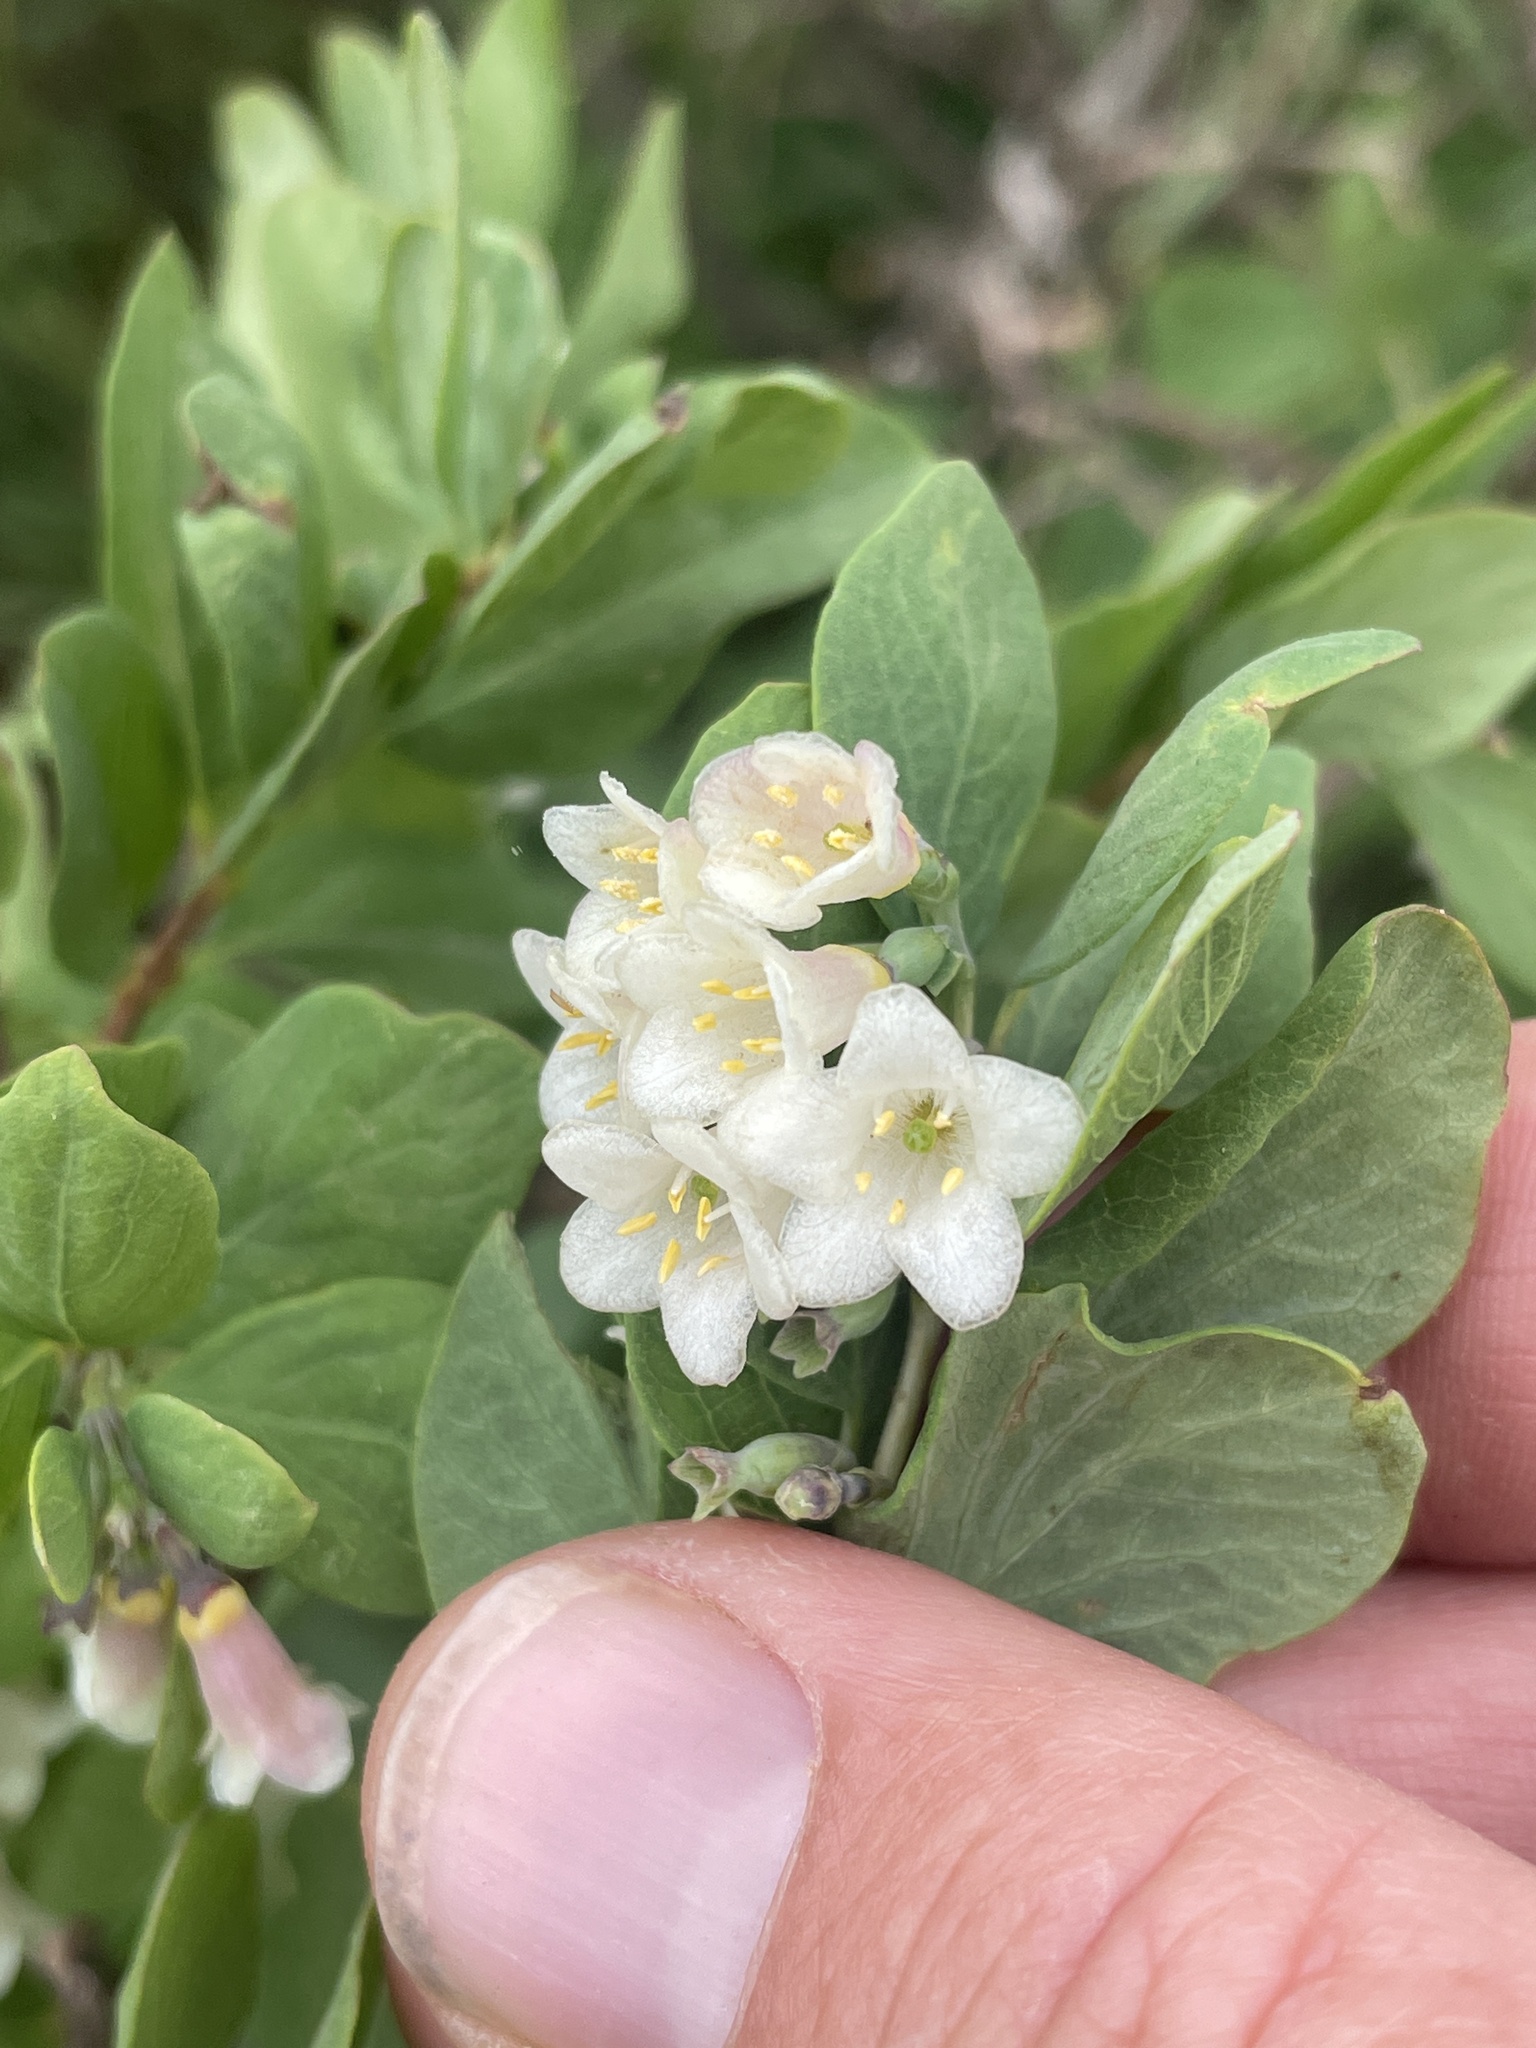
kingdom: Plantae
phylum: Tracheophyta
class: Magnoliopsida
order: Dipsacales
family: Caprifoliaceae
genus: Symphoricarpos
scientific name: Symphoricarpos rotundifolius
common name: Round-leaved snowberry
